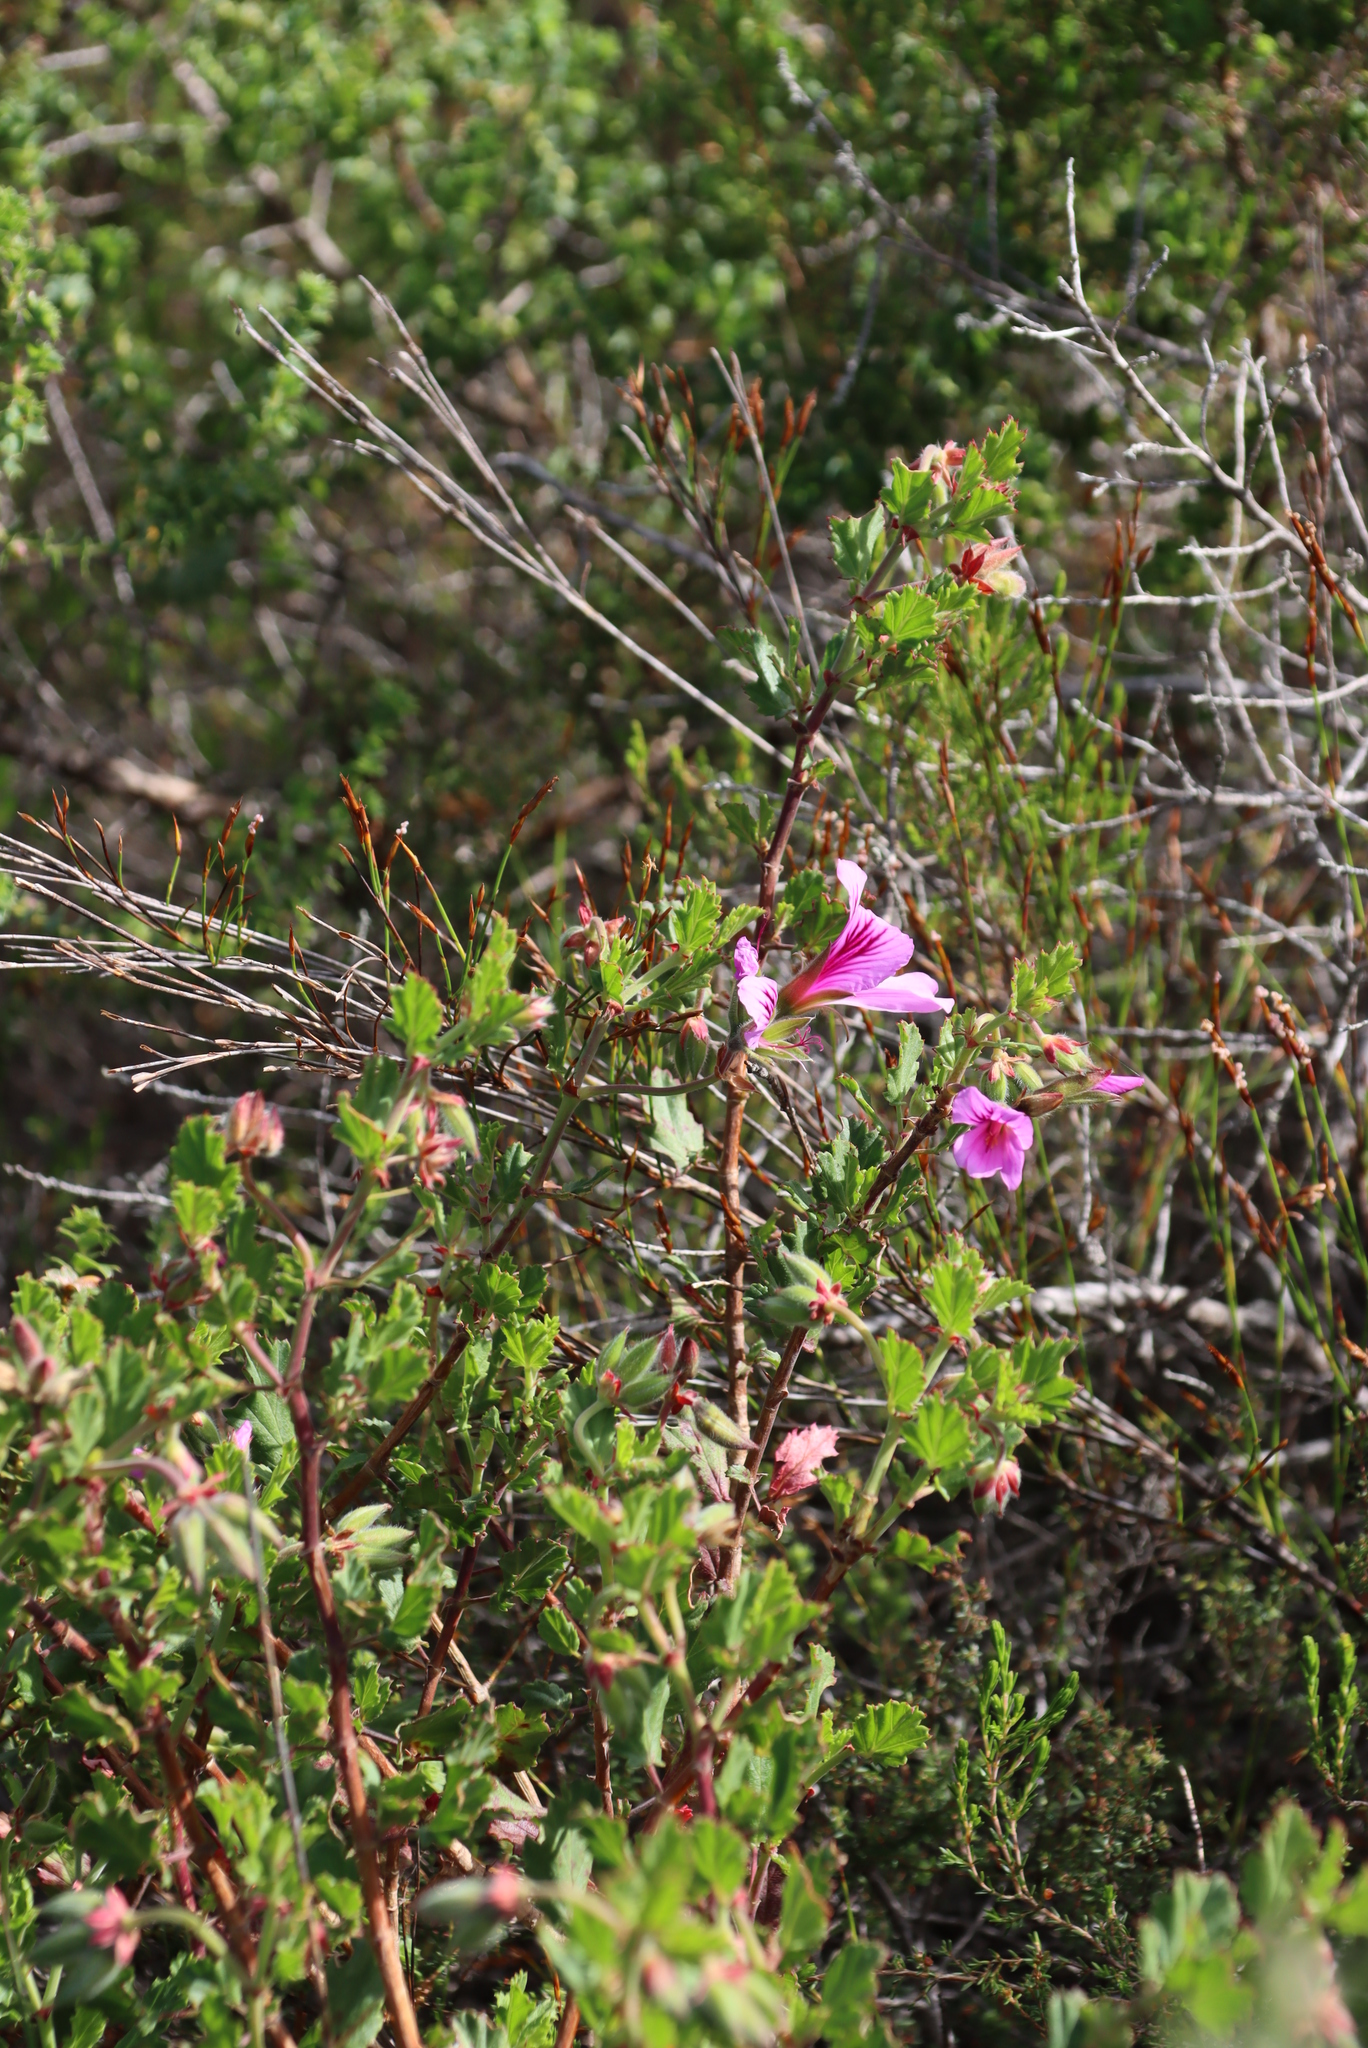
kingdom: Plantae
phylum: Tracheophyta
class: Magnoliopsida
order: Geraniales
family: Geraniaceae
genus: Pelargonium
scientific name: Pelargonium betulinum
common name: Birch-leaf pelargonium
